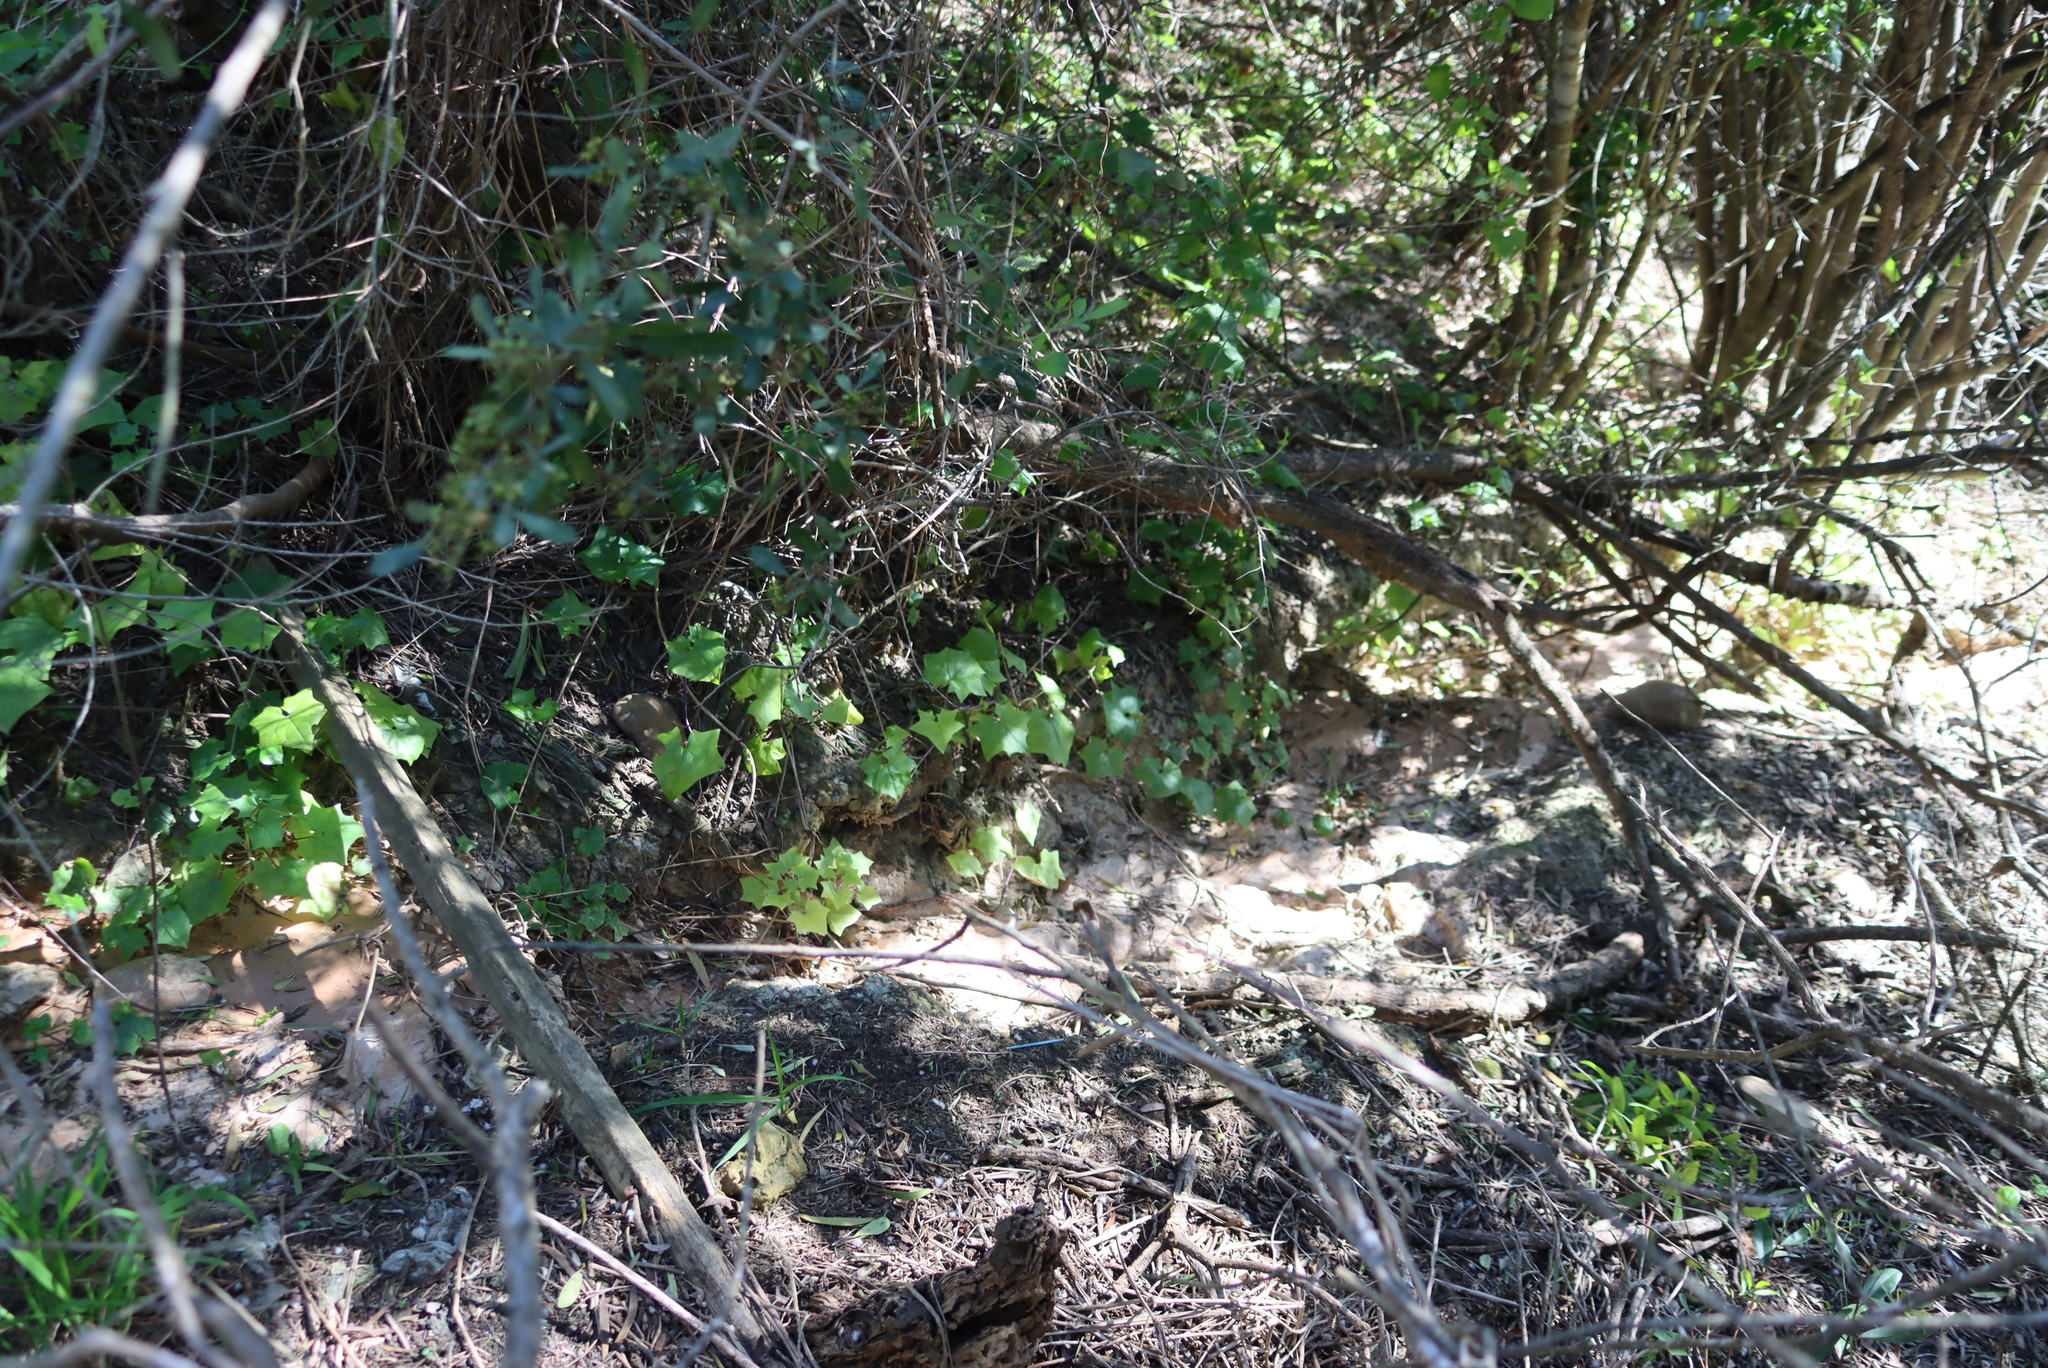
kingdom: Plantae
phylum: Tracheophyta
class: Magnoliopsida
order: Asterales
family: Asteraceae
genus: Delairea
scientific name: Delairea odorata
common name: Cape-ivy
